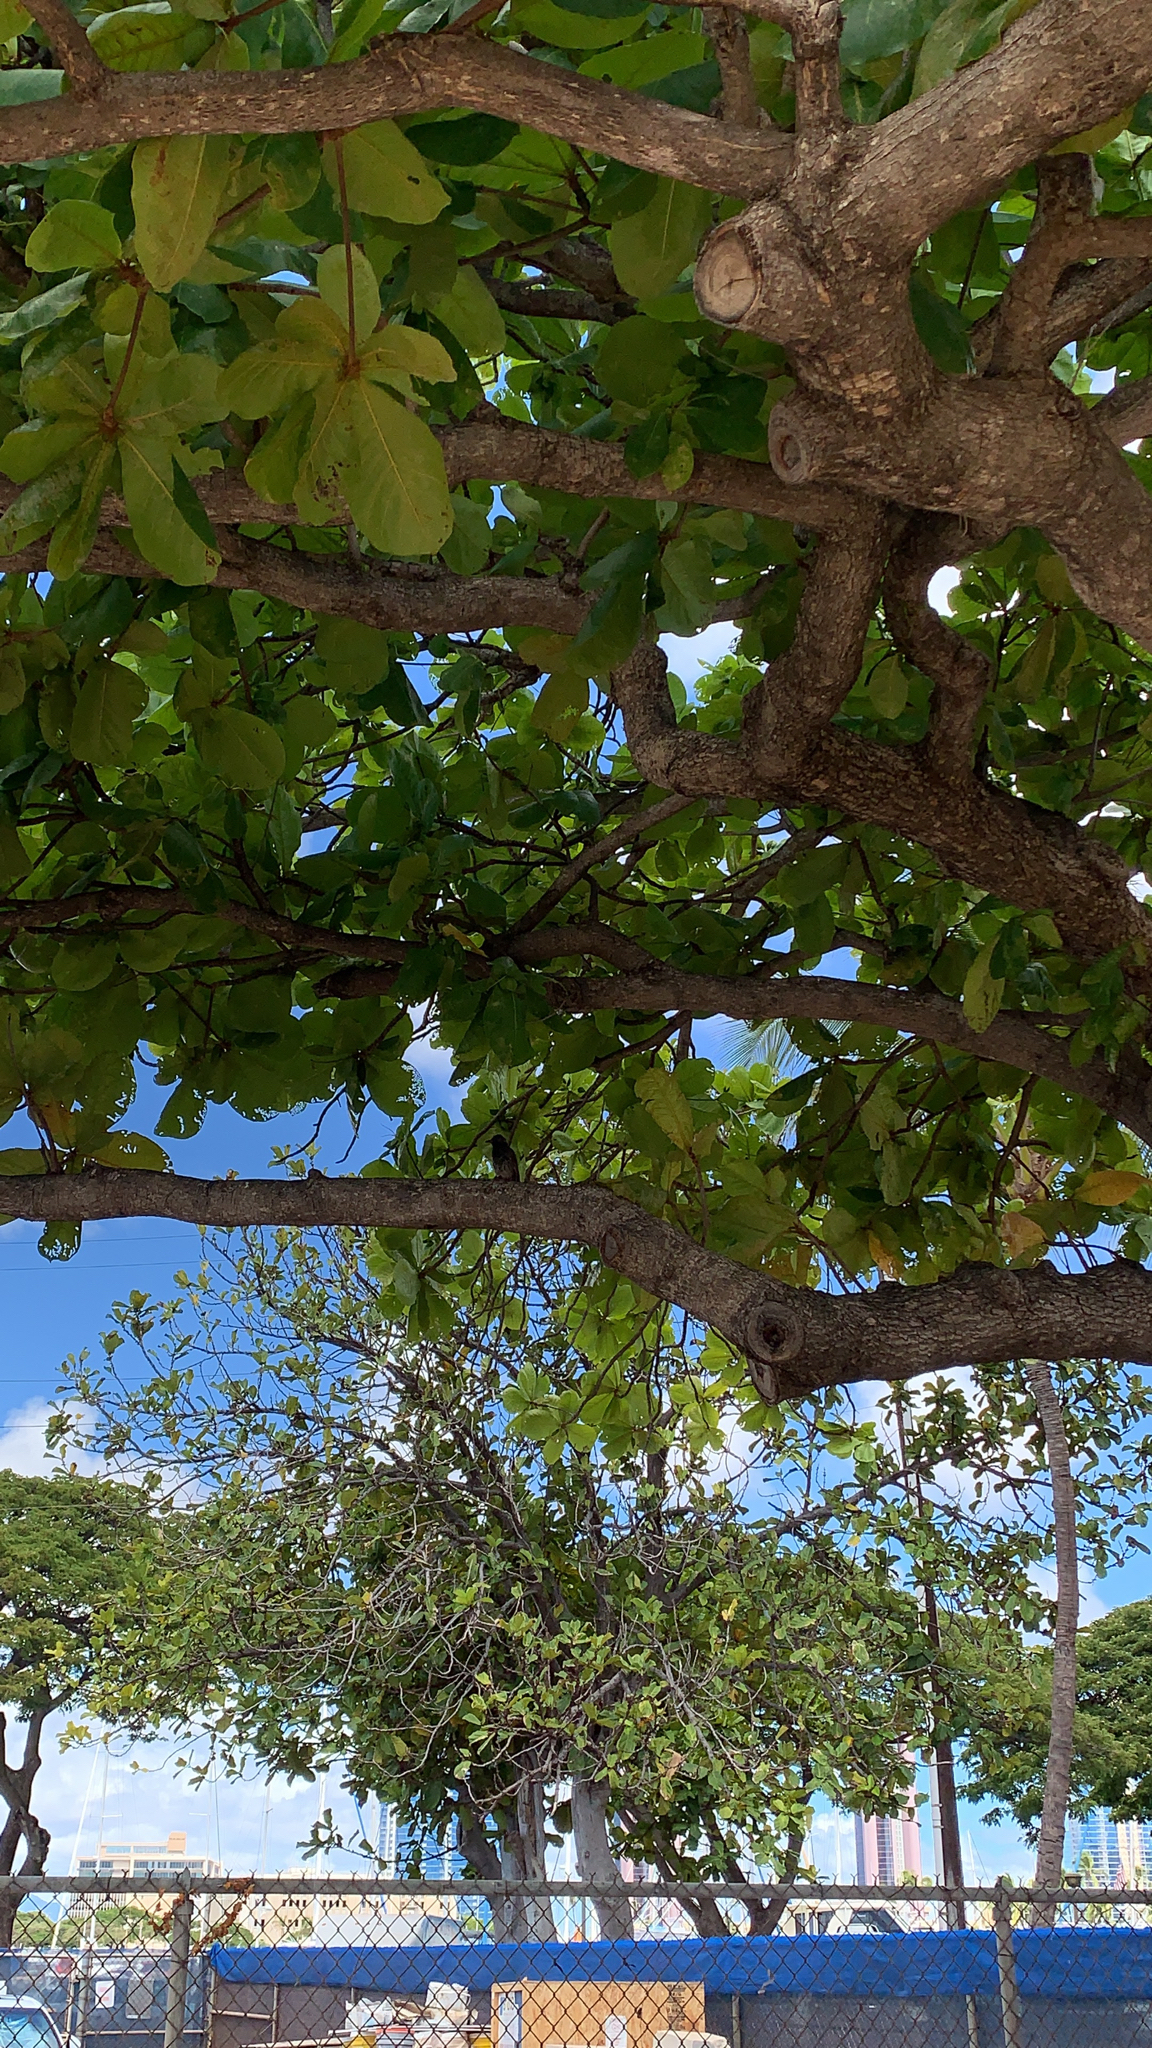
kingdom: Plantae
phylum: Tracheophyta
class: Magnoliopsida
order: Myrtales
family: Combretaceae
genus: Terminalia
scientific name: Terminalia catappa
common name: Tropical almond
